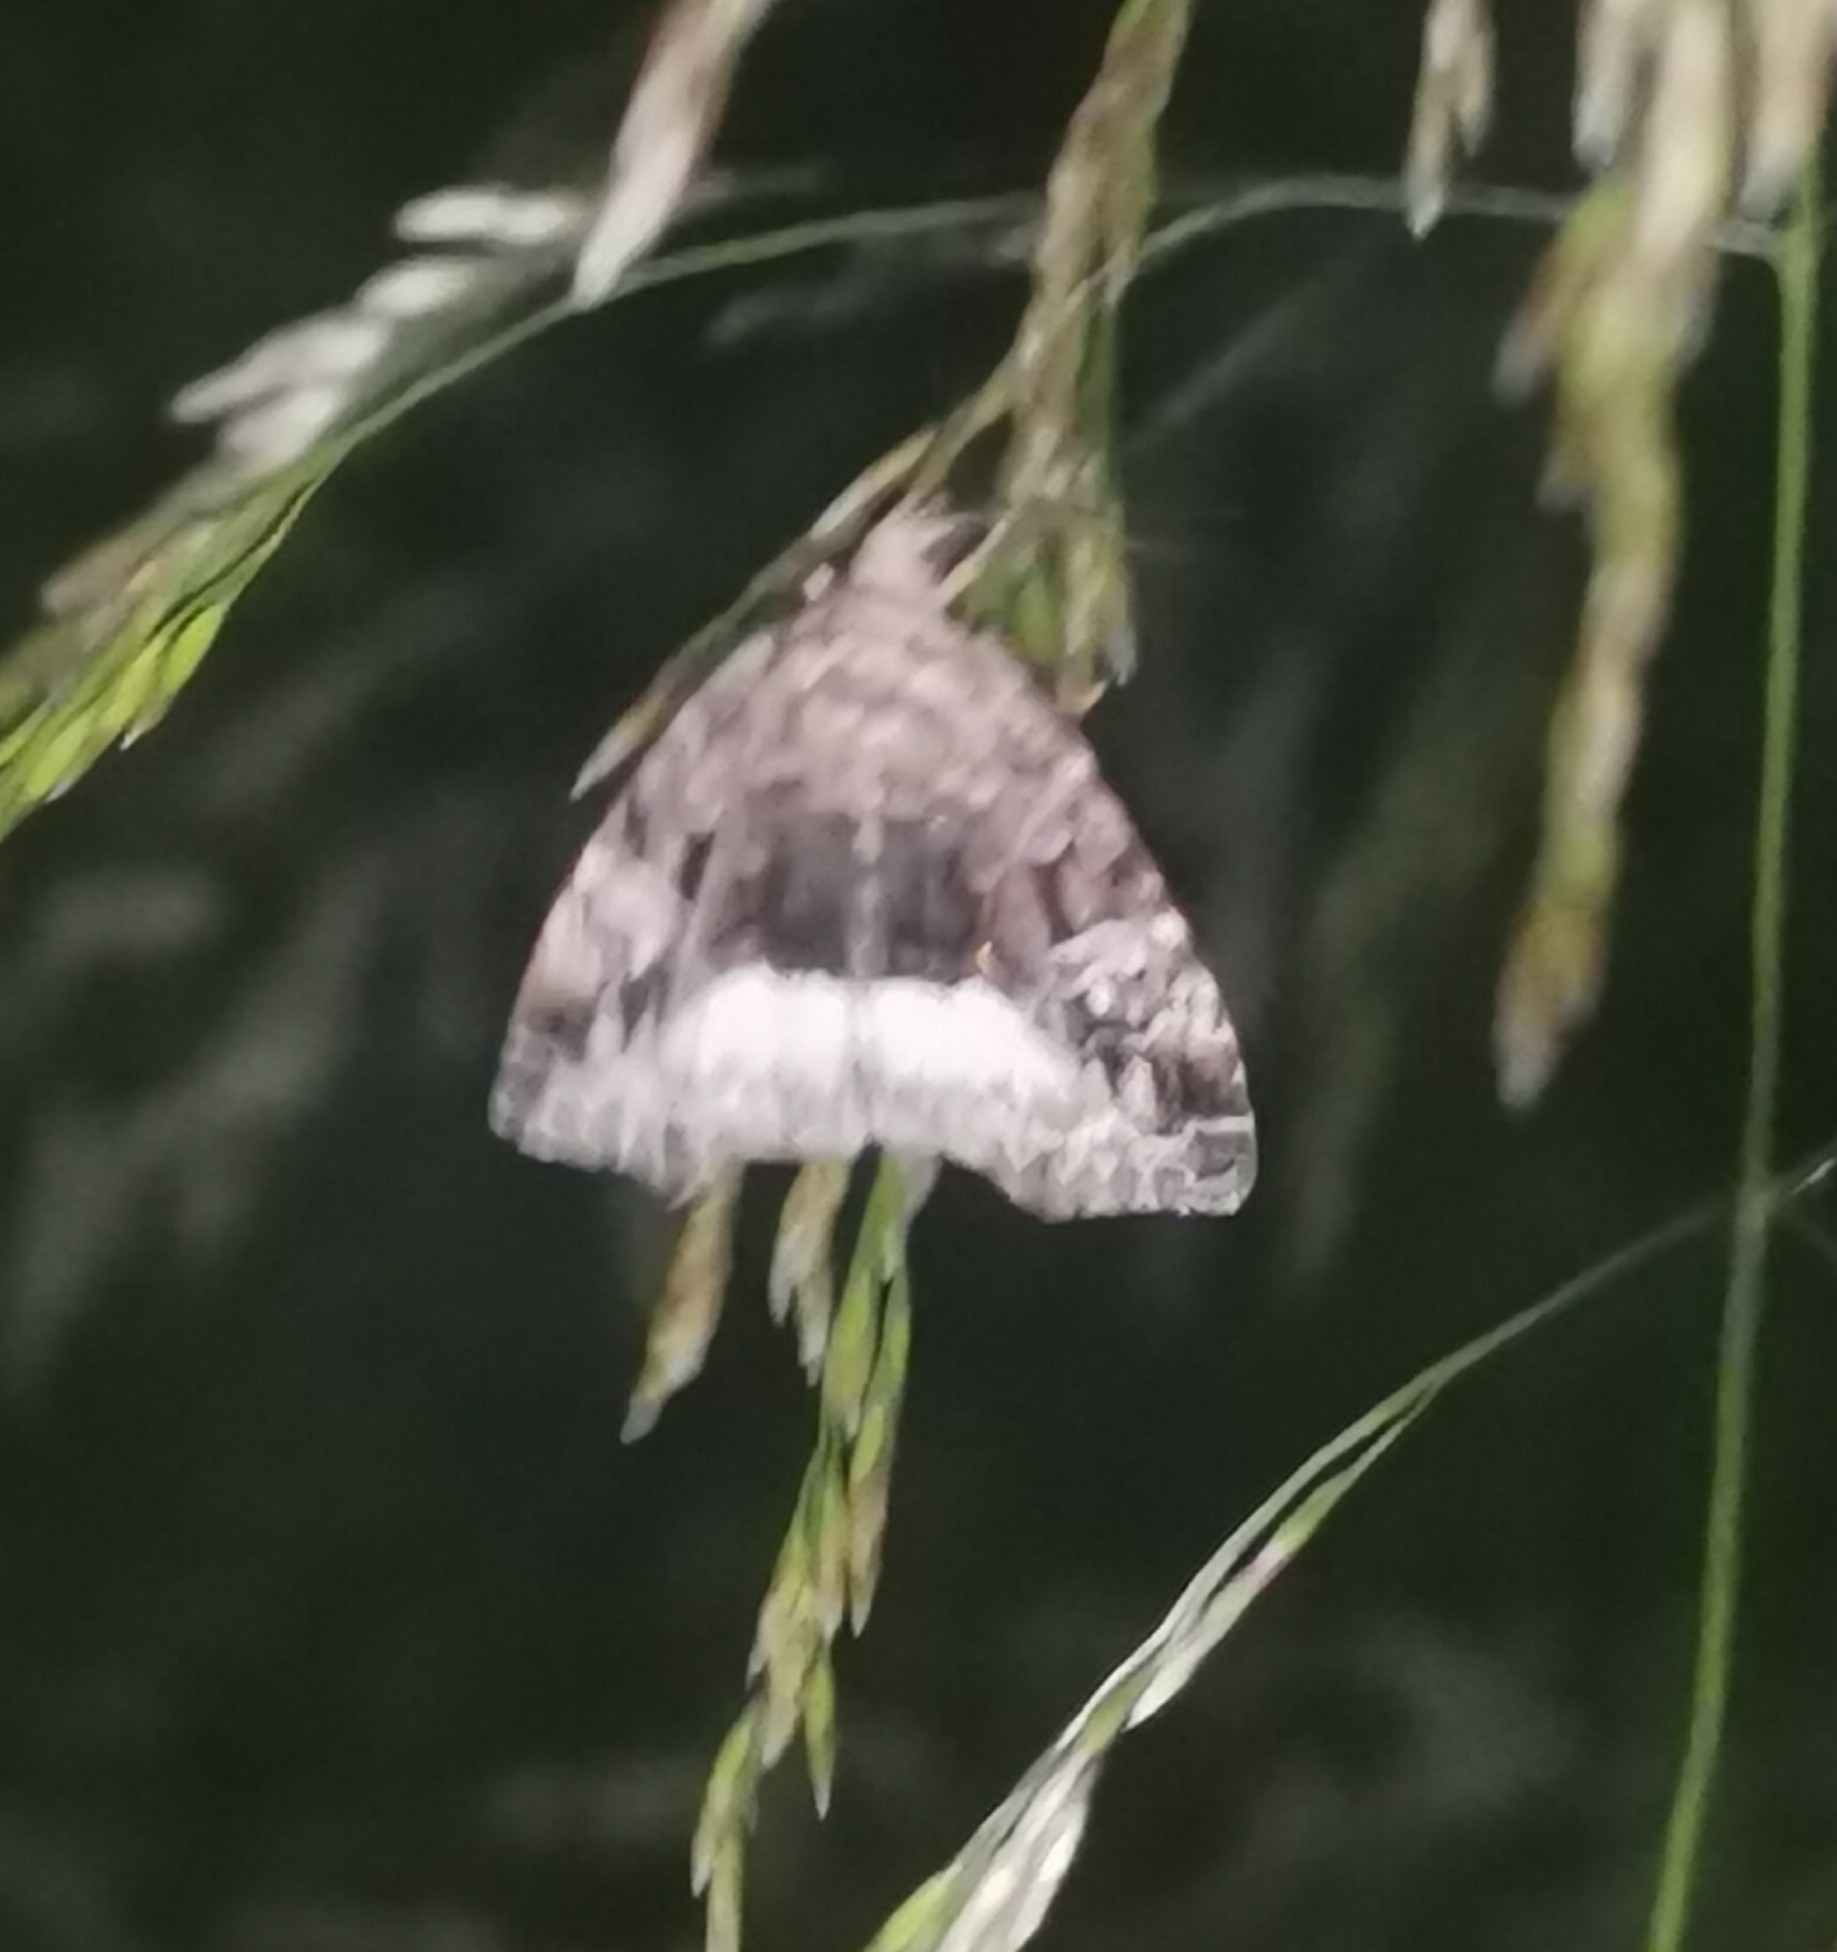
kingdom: Animalia
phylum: Arthropoda
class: Insecta
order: Lepidoptera
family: Noctuidae
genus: Deltote
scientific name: Deltote pygarga
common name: Marbled white spot
